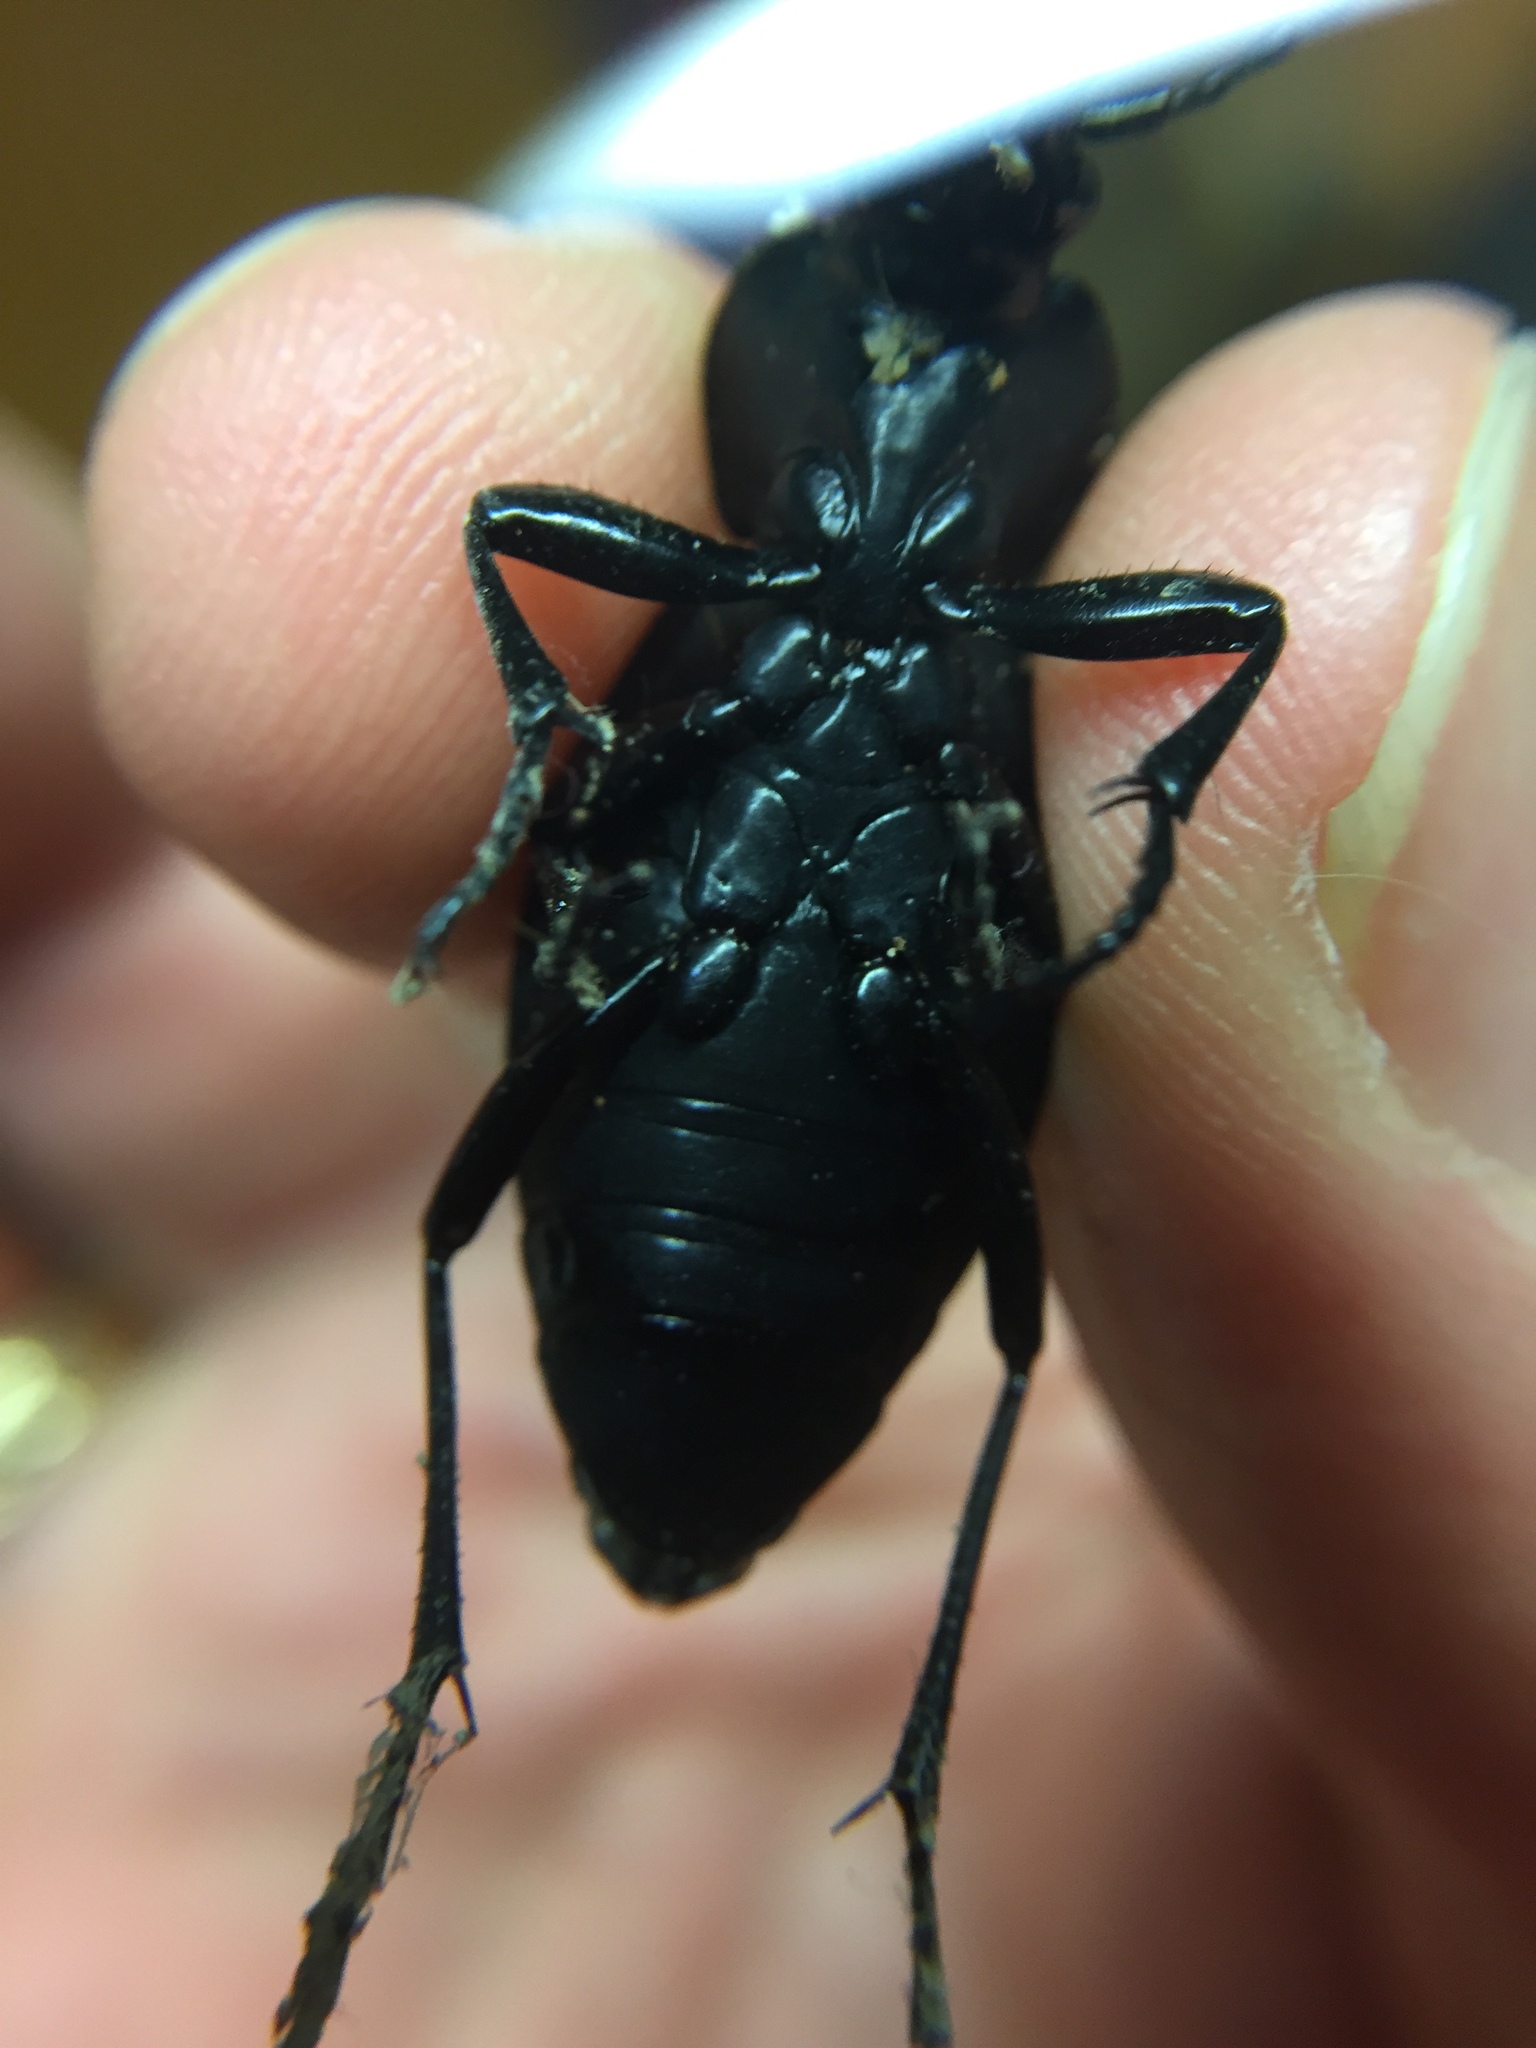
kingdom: Animalia
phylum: Arthropoda
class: Insecta
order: Coleoptera
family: Carabidae
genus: Carabus
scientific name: Carabus coriaceus
